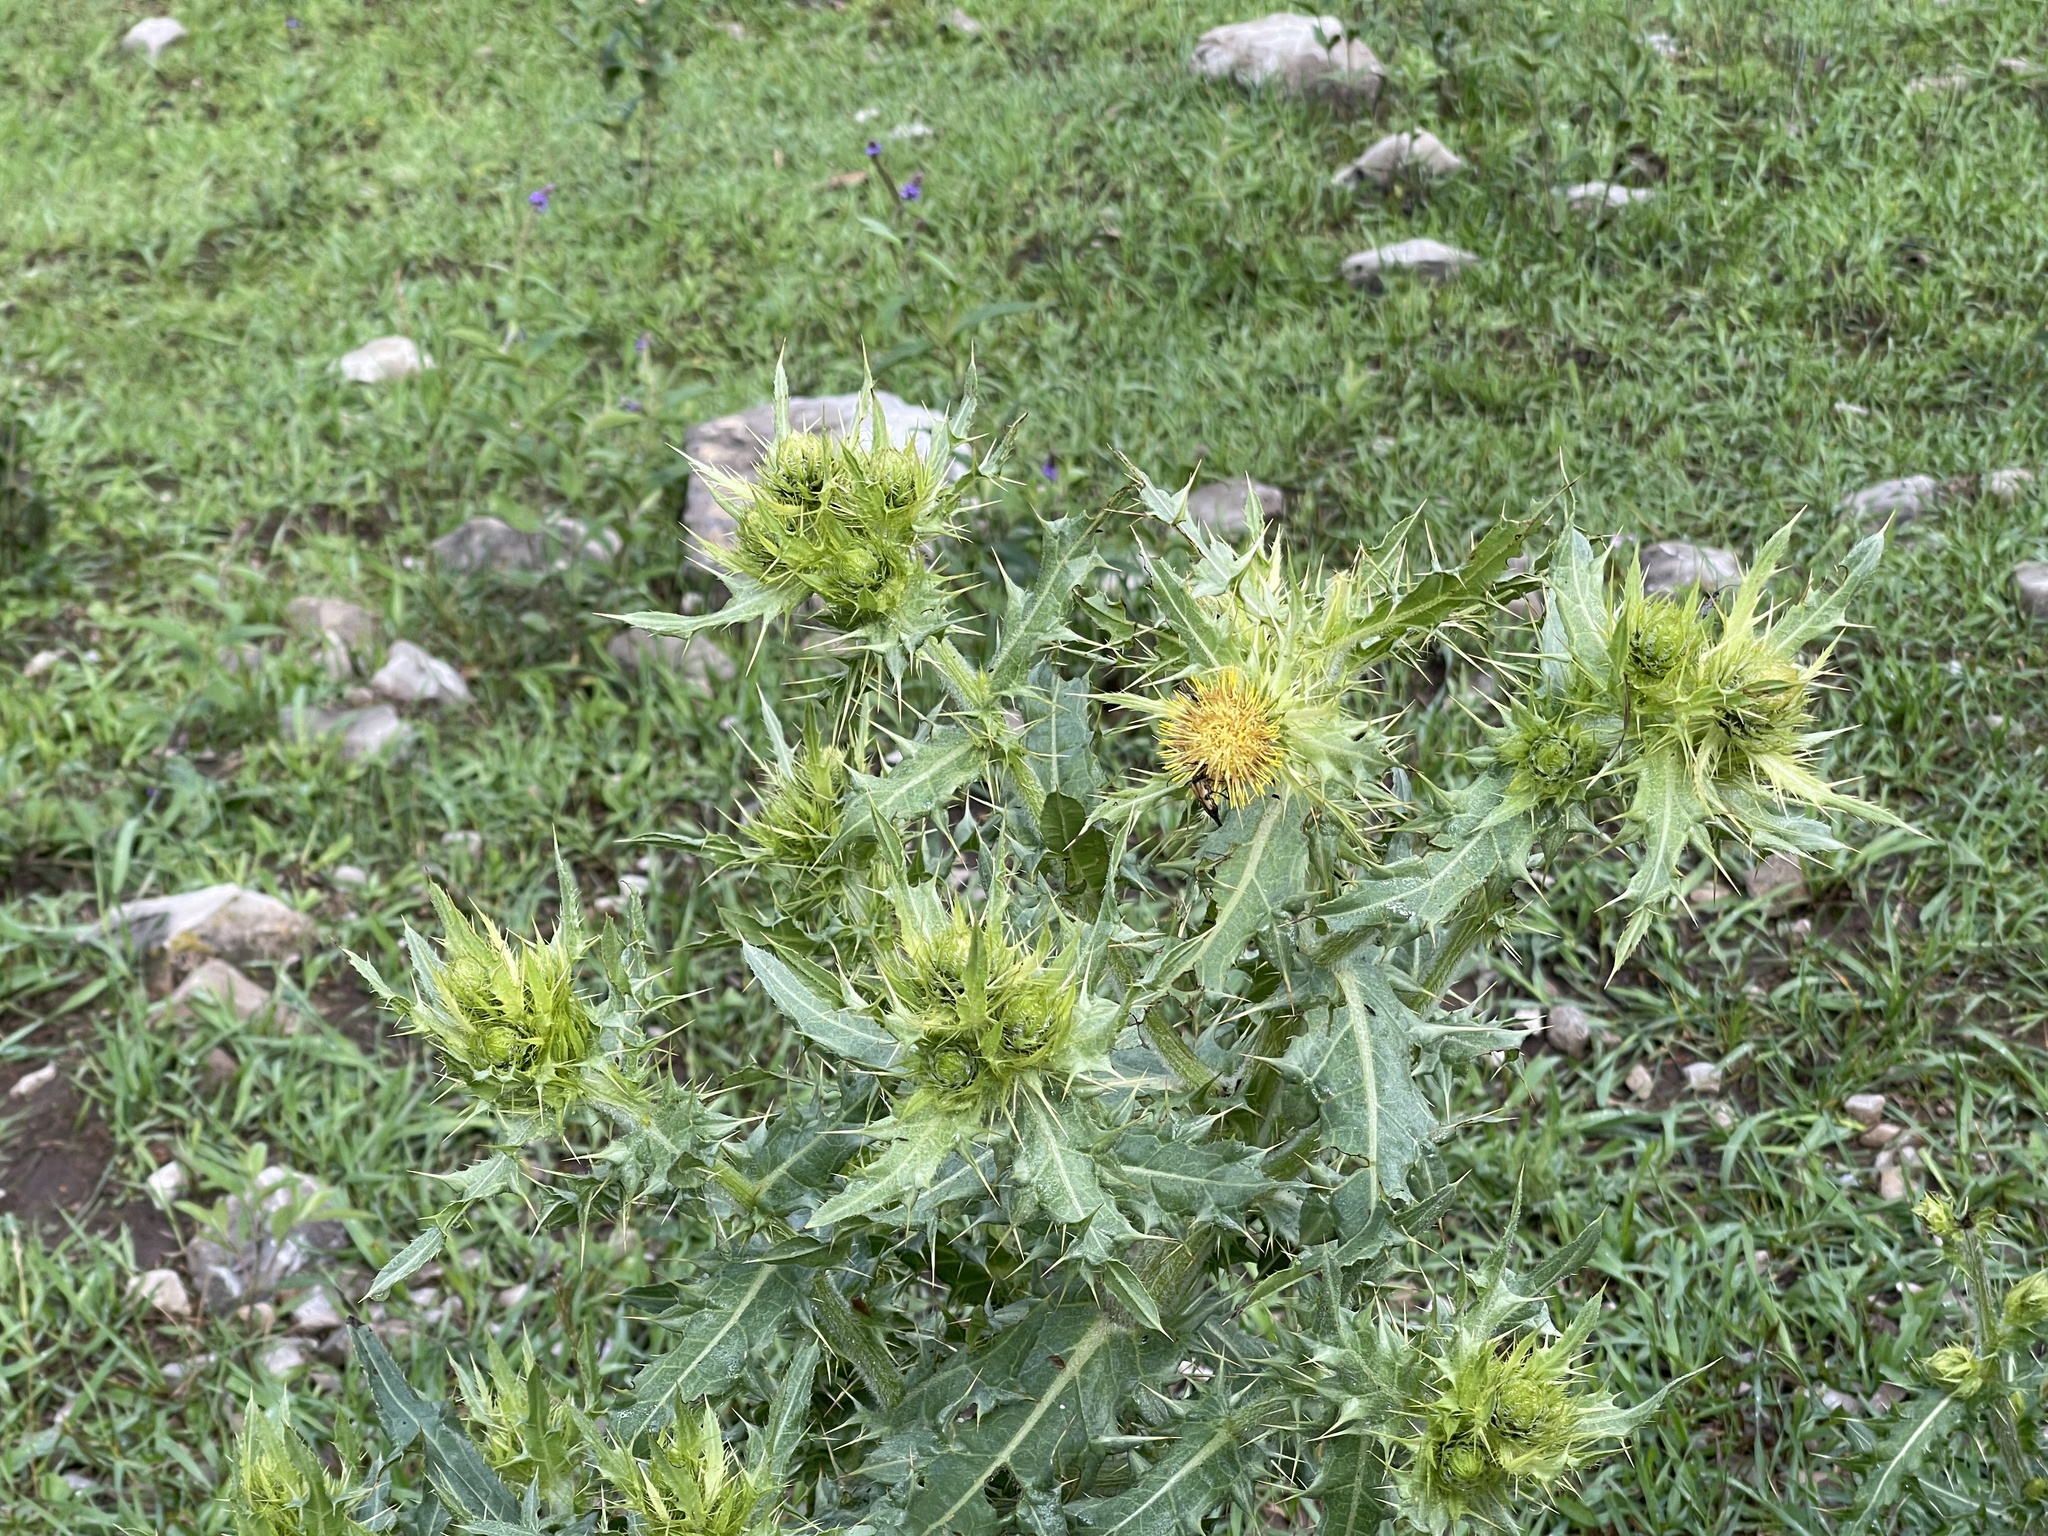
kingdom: Plantae
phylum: Tracheophyta
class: Magnoliopsida
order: Asterales
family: Asteraceae
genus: Cirsium
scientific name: Cirsium parryi
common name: Parry's thistle
